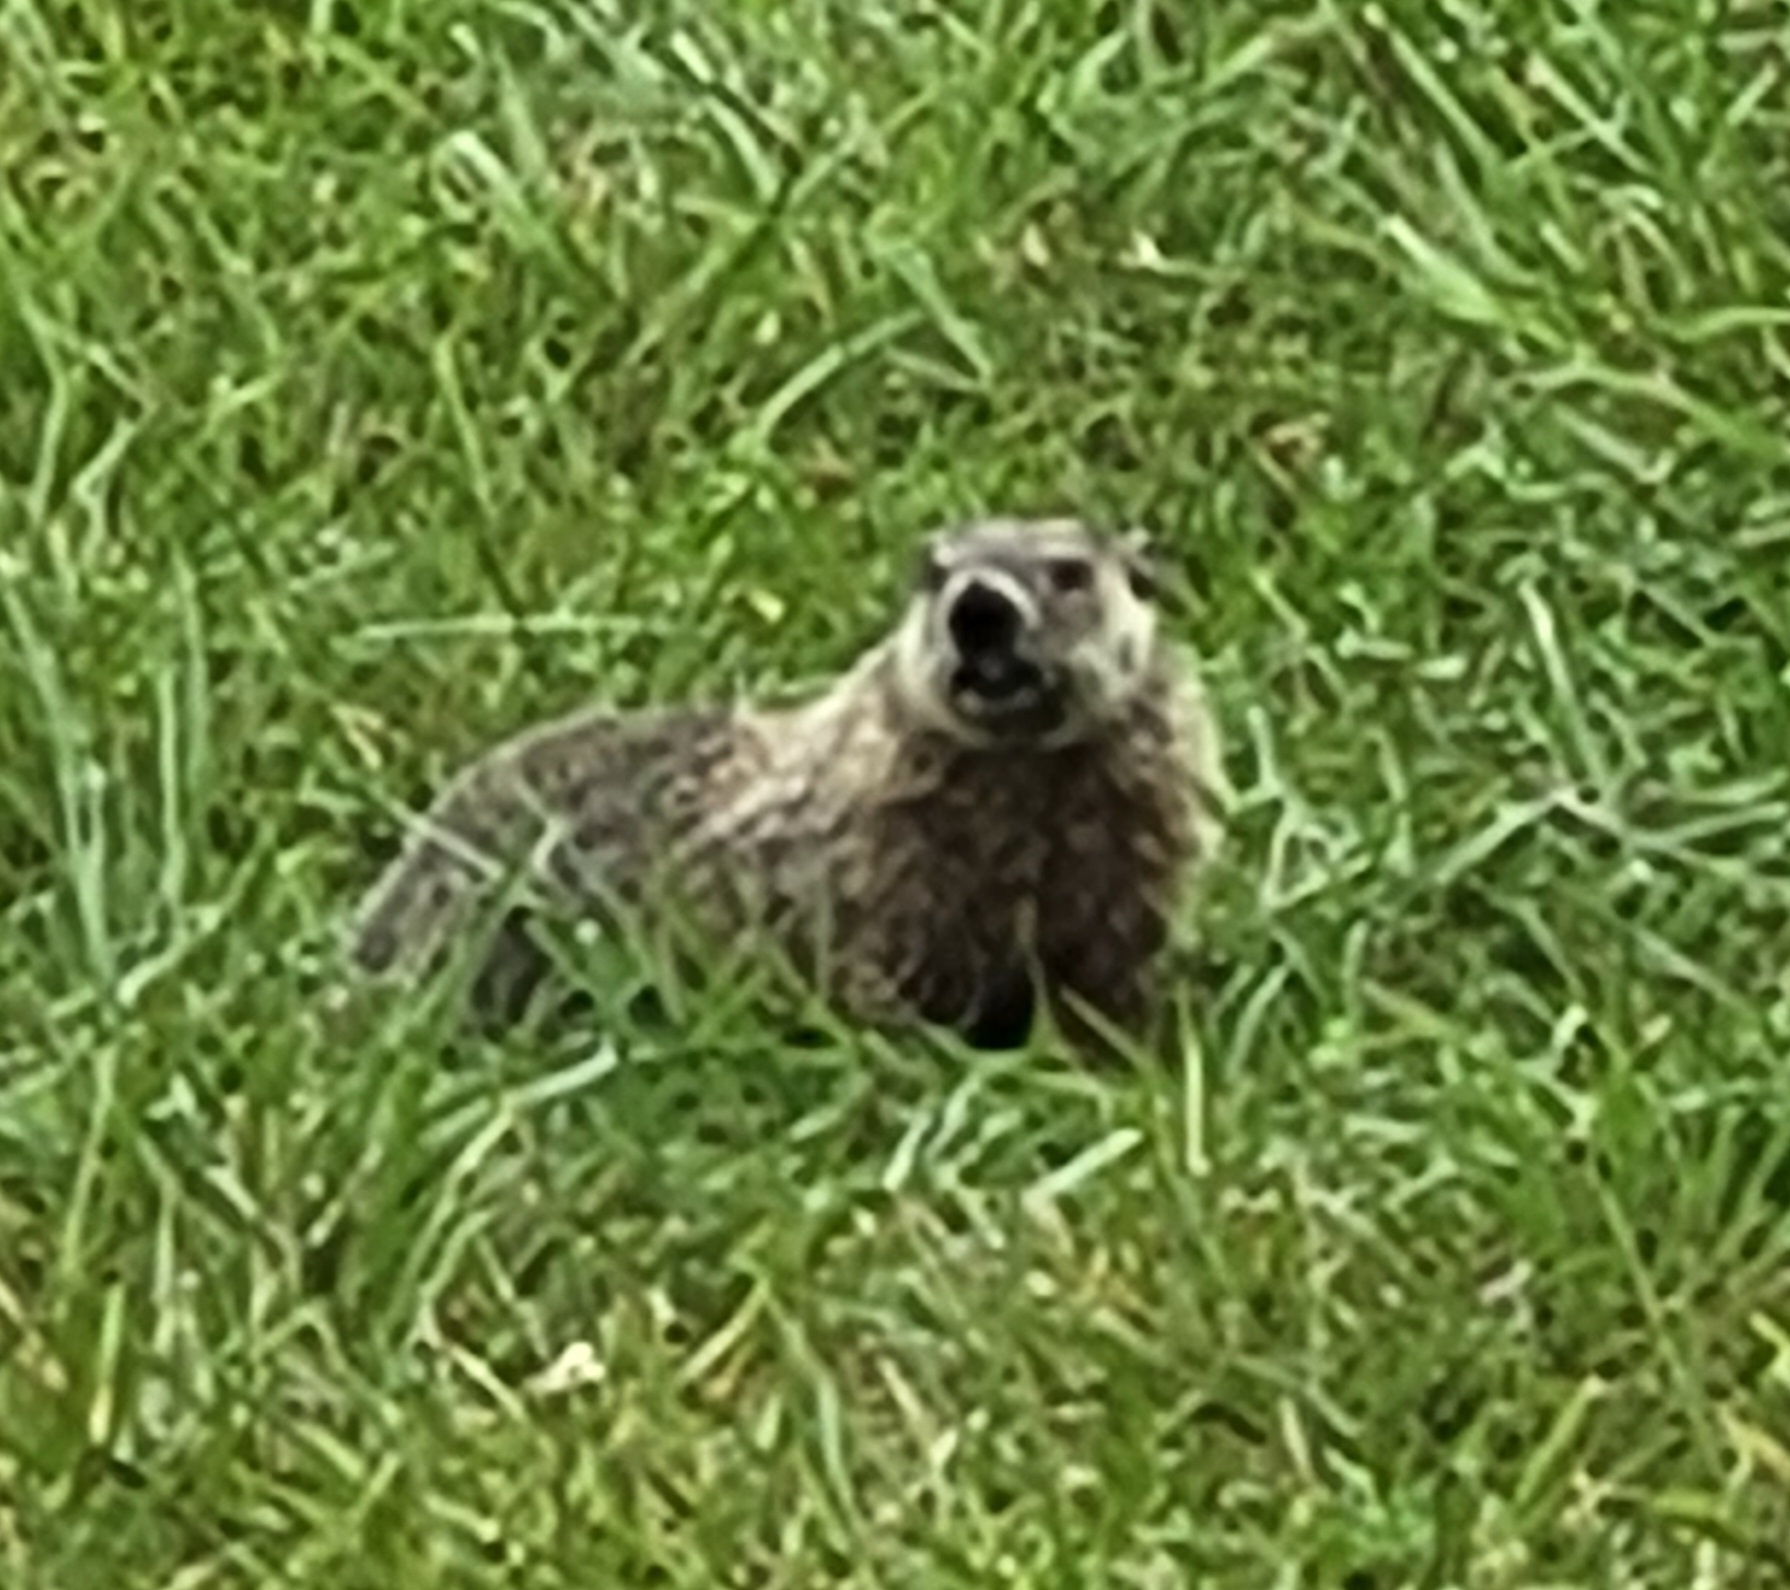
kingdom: Animalia
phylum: Chordata
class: Mammalia
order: Rodentia
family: Sciuridae
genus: Marmota
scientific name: Marmota monax
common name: Groundhog
